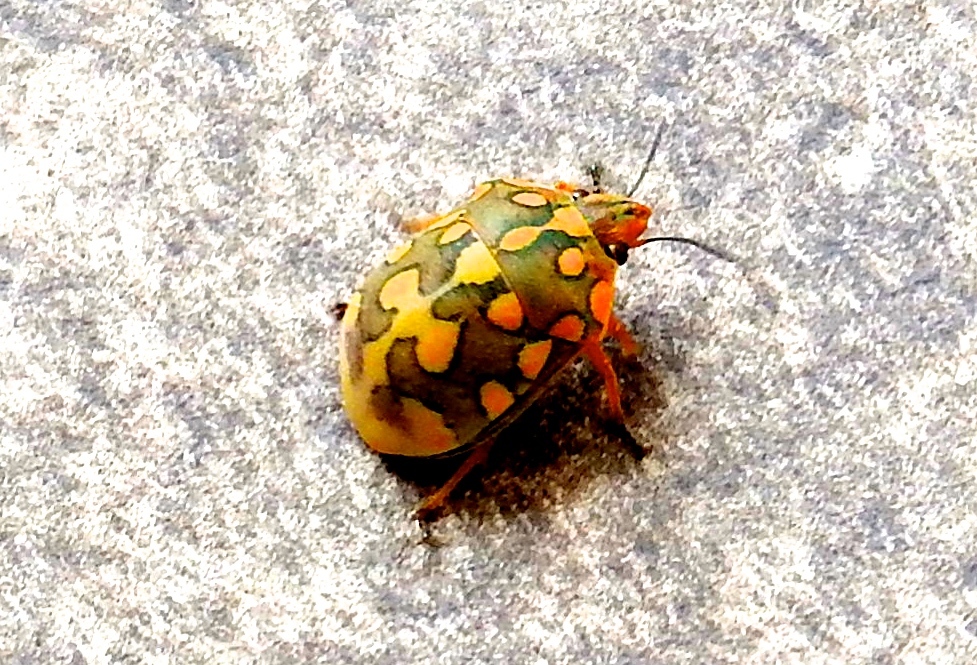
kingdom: Animalia
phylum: Arthropoda
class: Insecta
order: Hemiptera
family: Scutelleridae
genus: Pachycoris
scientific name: Pachycoris torridus
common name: Torrid jewel bug
